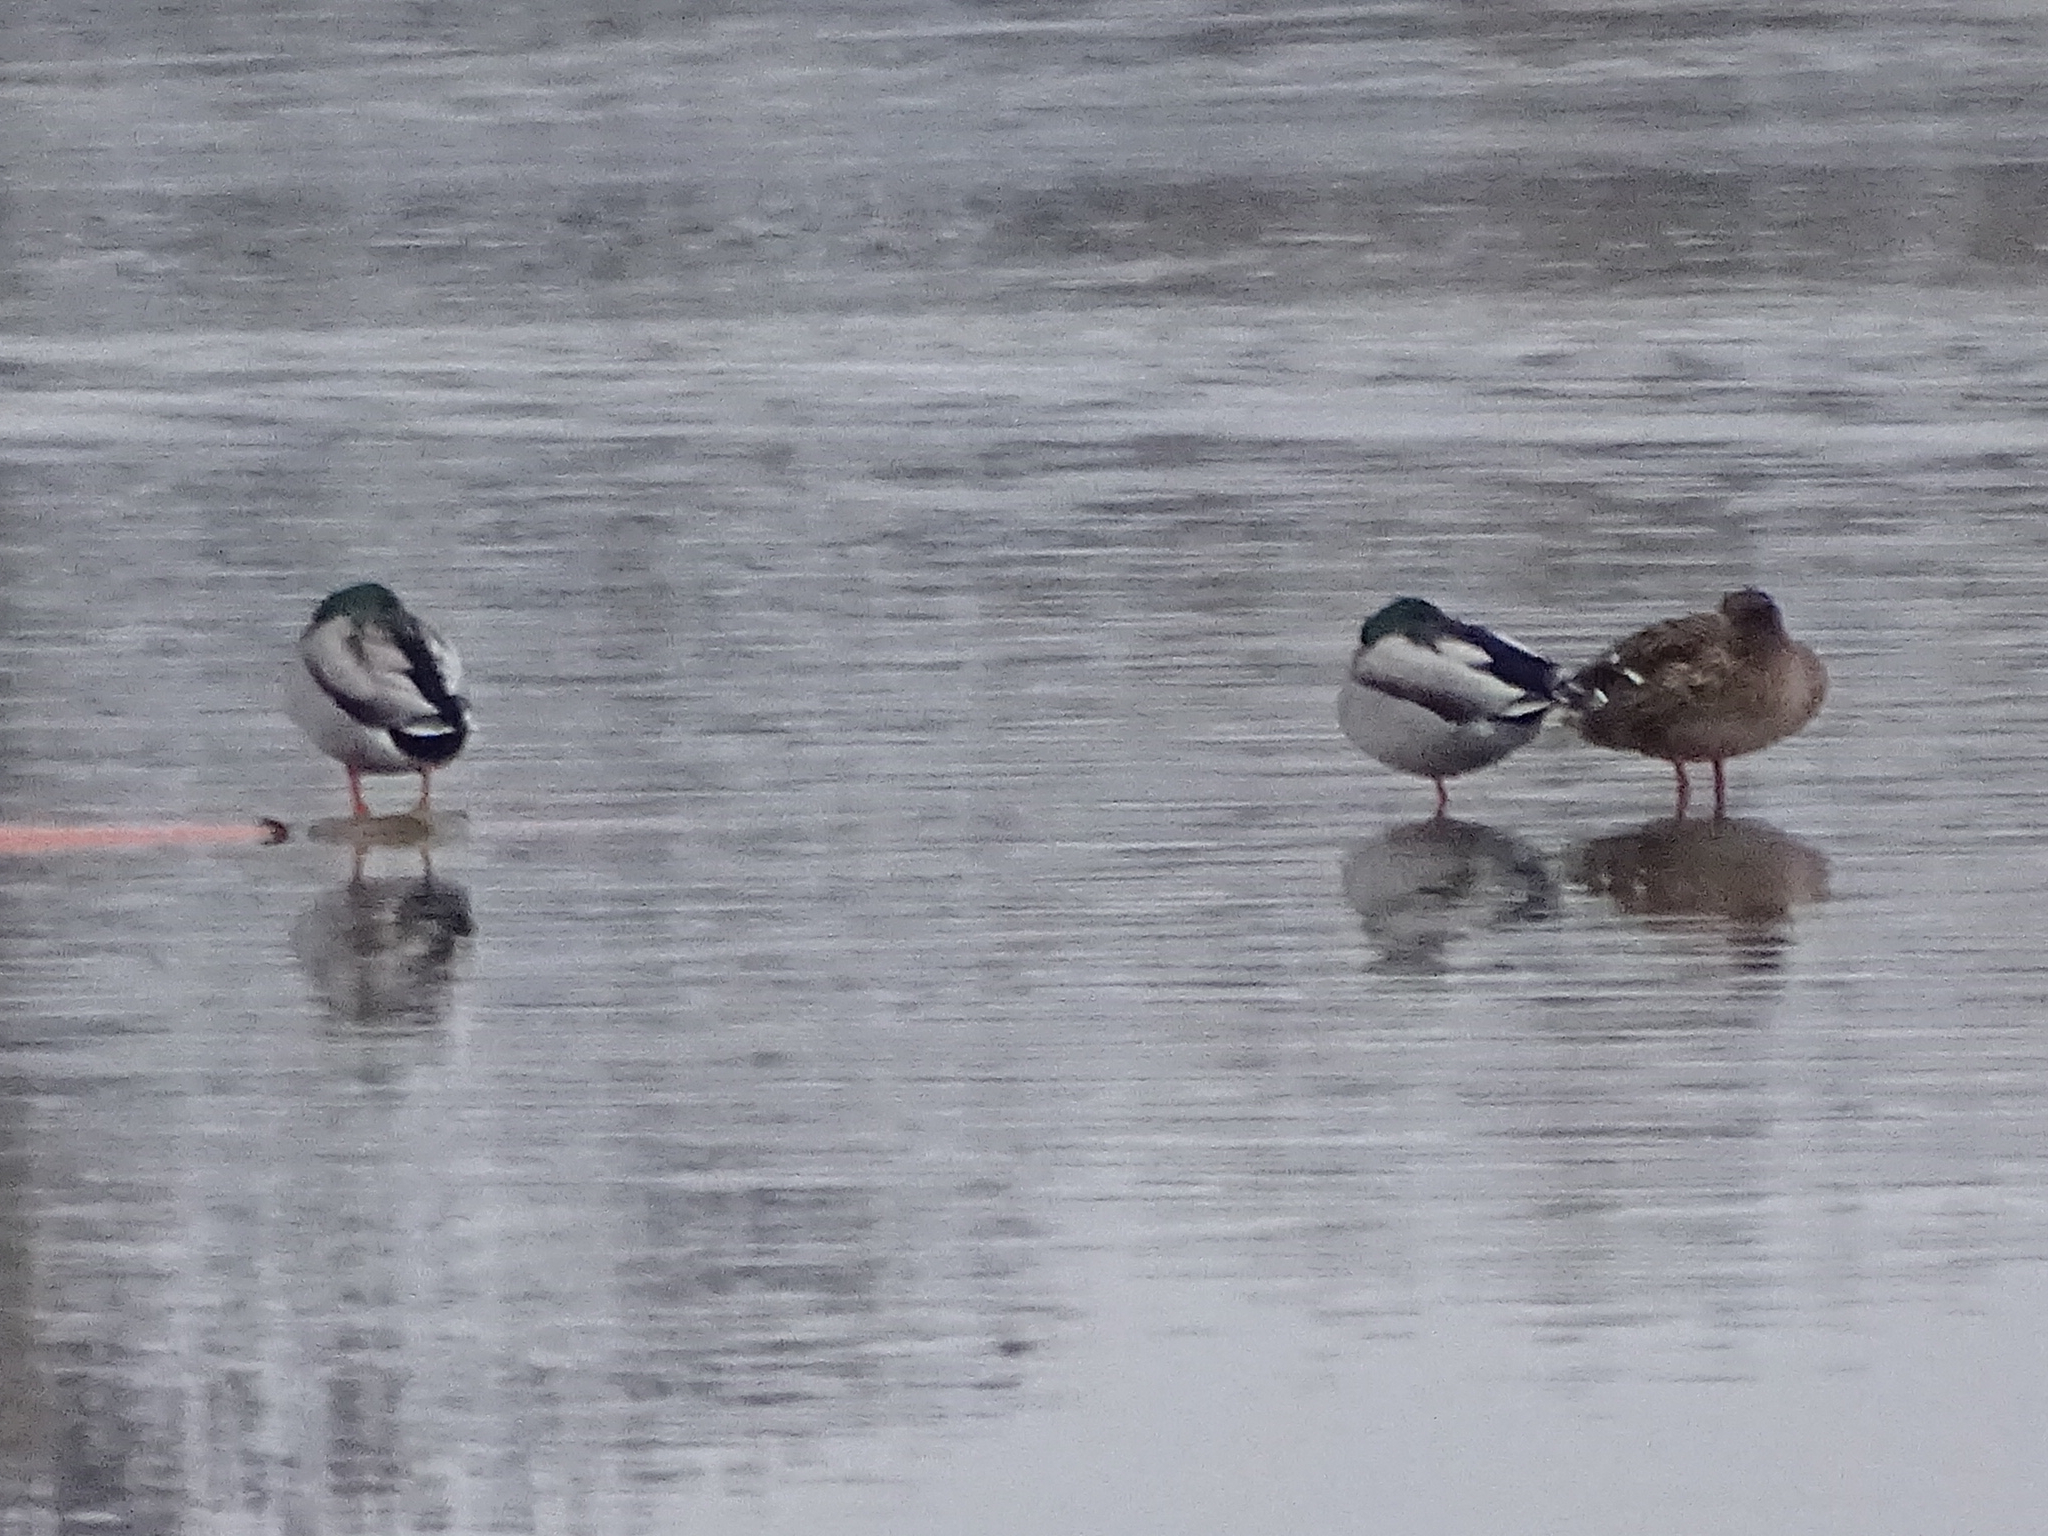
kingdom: Animalia
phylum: Chordata
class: Aves
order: Anseriformes
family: Anatidae
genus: Anas
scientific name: Anas platyrhynchos
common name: Mallard
